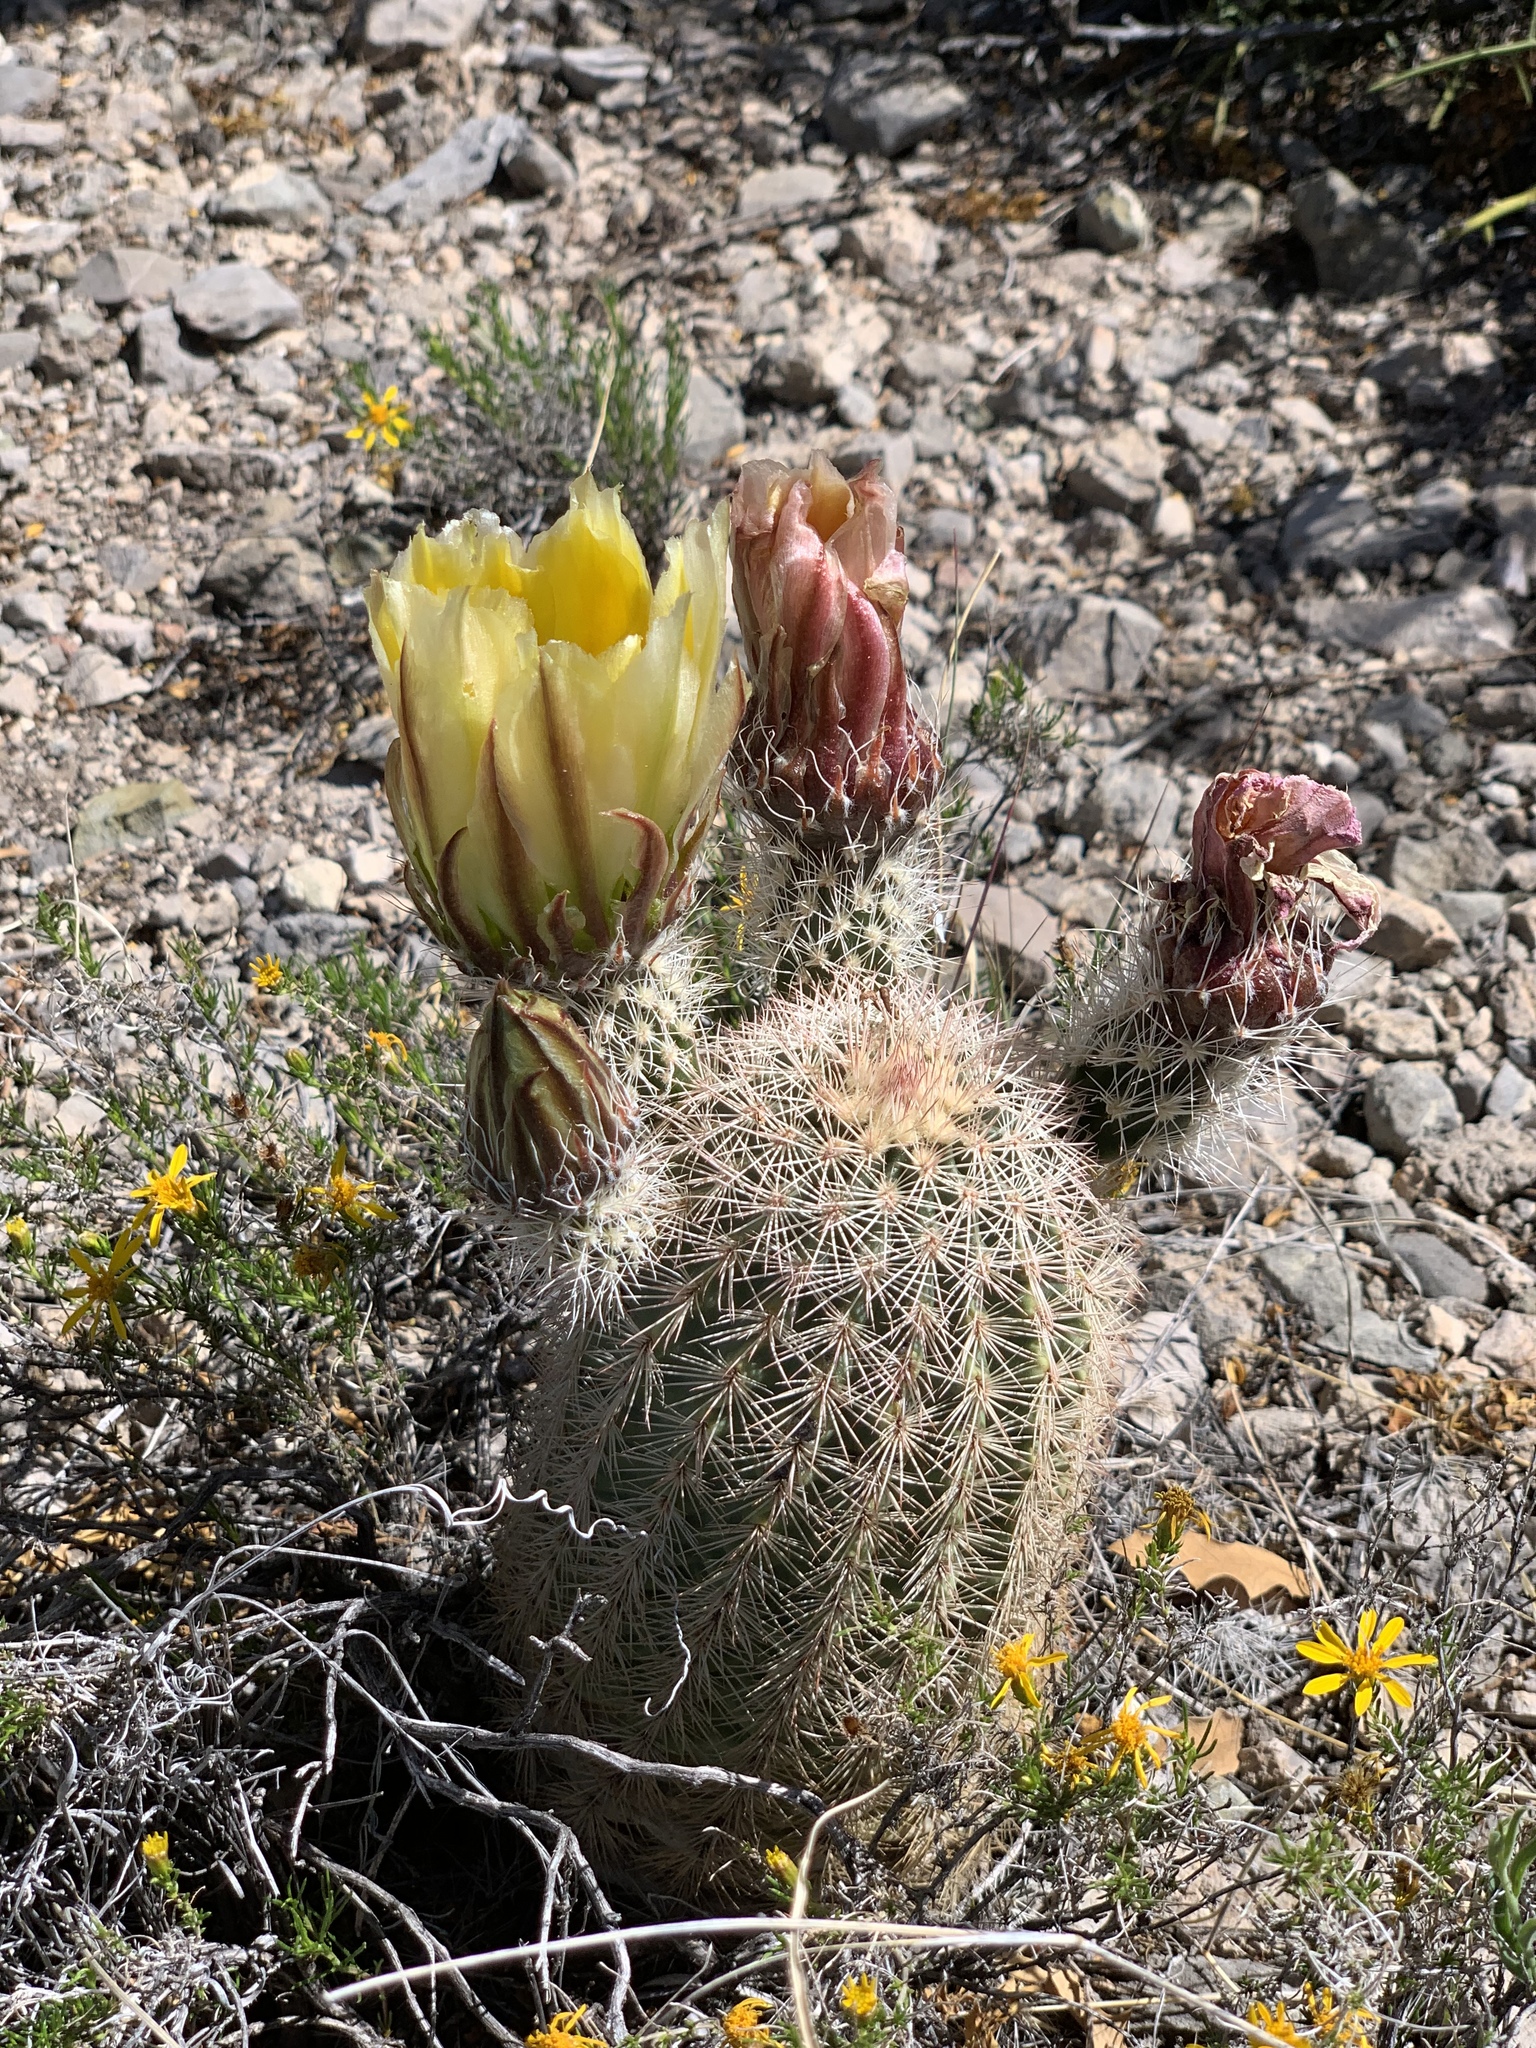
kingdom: Plantae
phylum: Tracheophyta
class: Magnoliopsida
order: Caryophyllales
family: Cactaceae
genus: Echinocereus
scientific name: Echinocereus dasyacanthus
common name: Spiny hedgehog cactus
